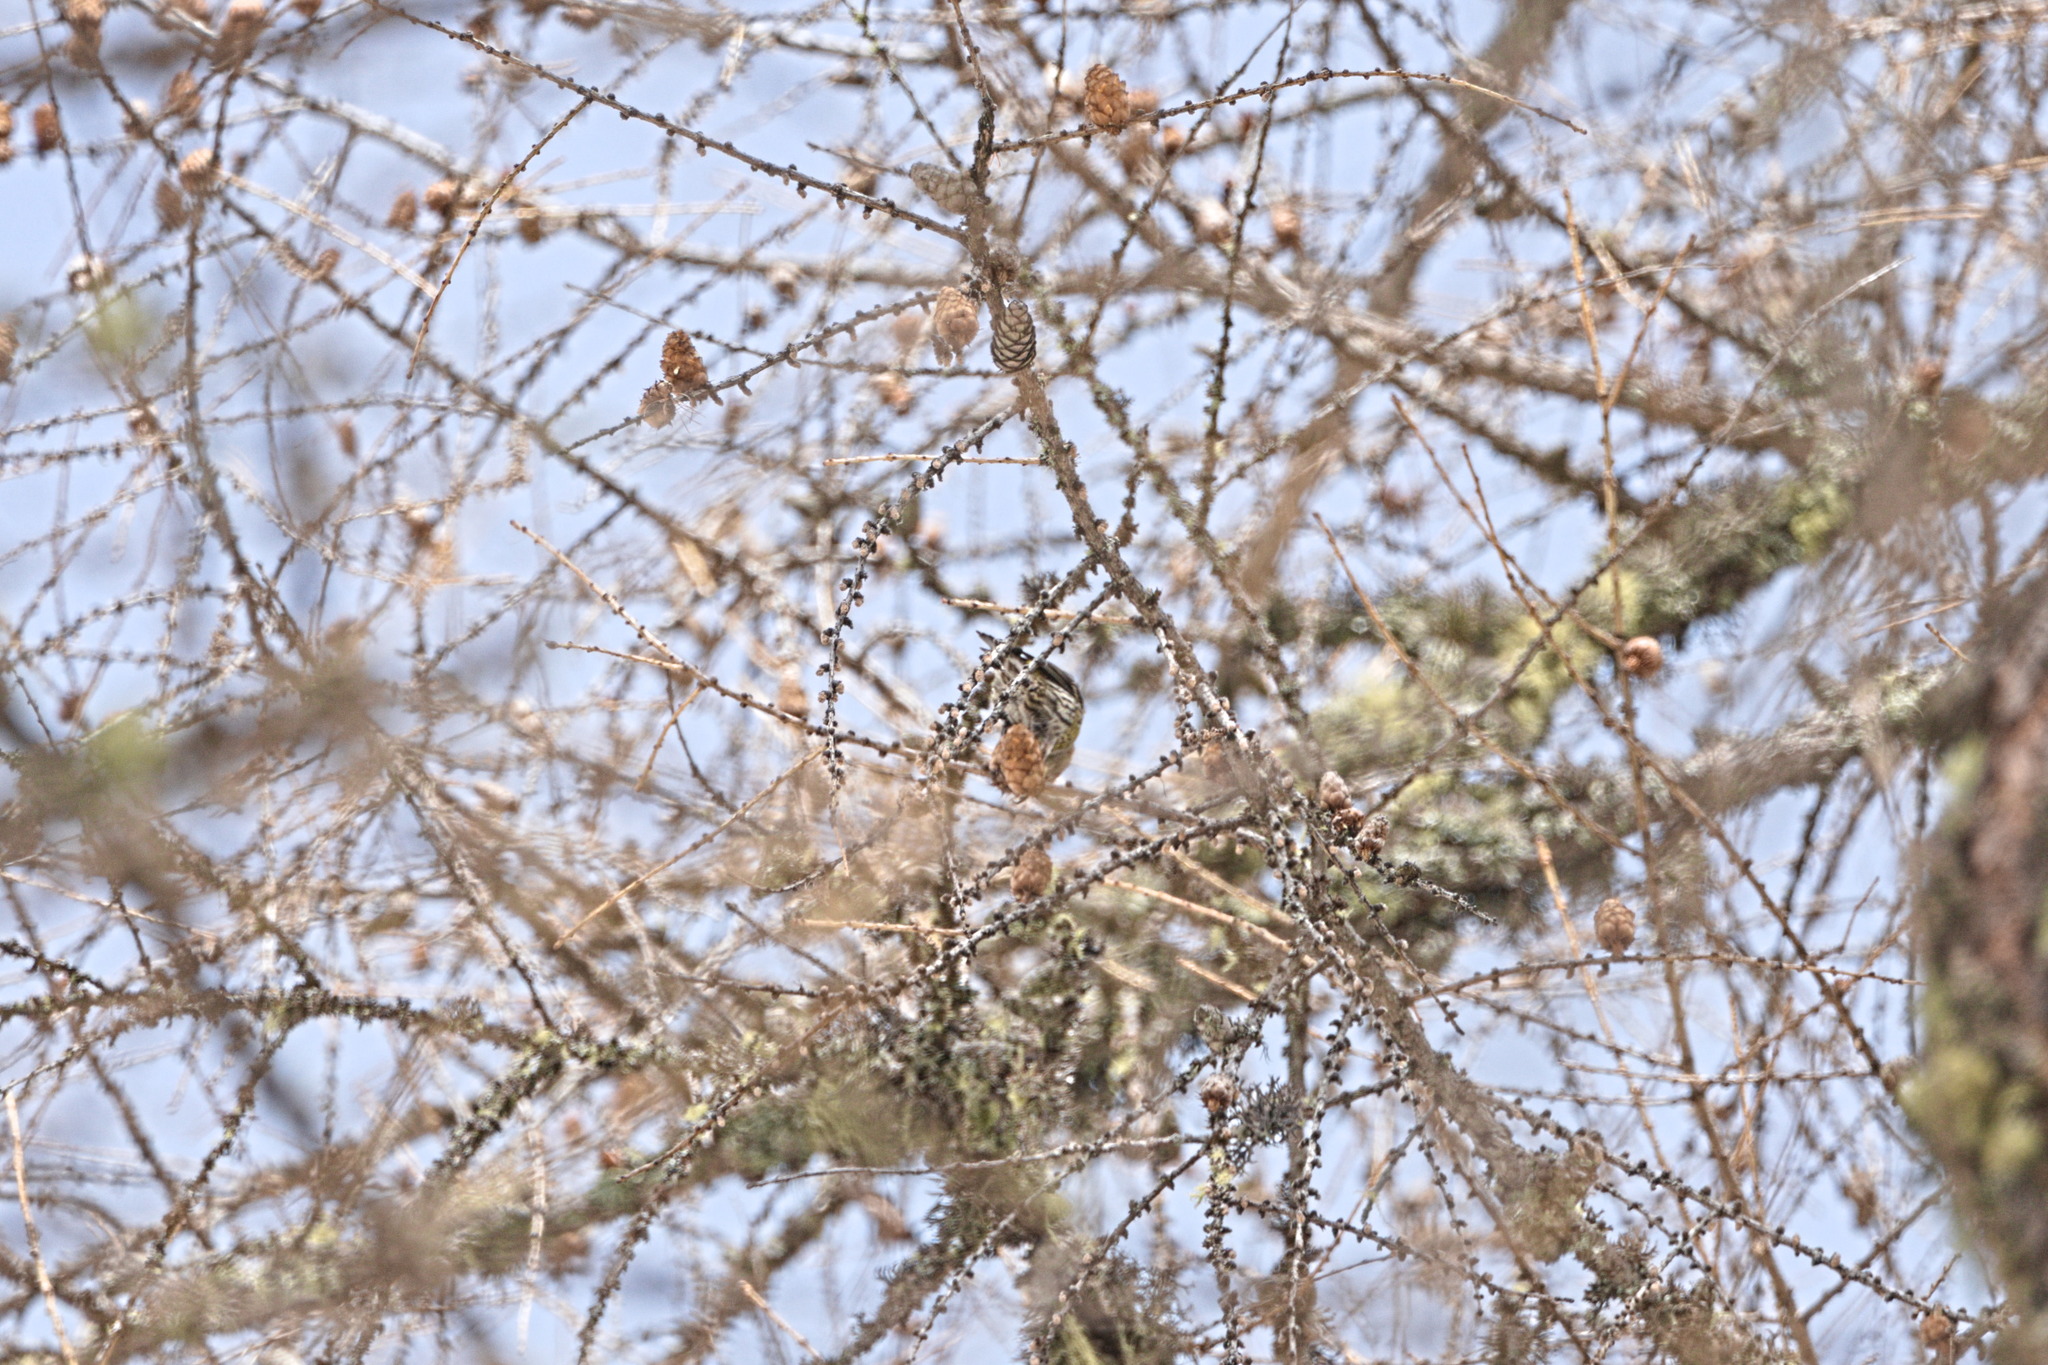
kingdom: Animalia
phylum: Chordata
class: Aves
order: Passeriformes
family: Fringillidae
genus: Loxia
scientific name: Loxia curvirostra
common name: Red crossbill
